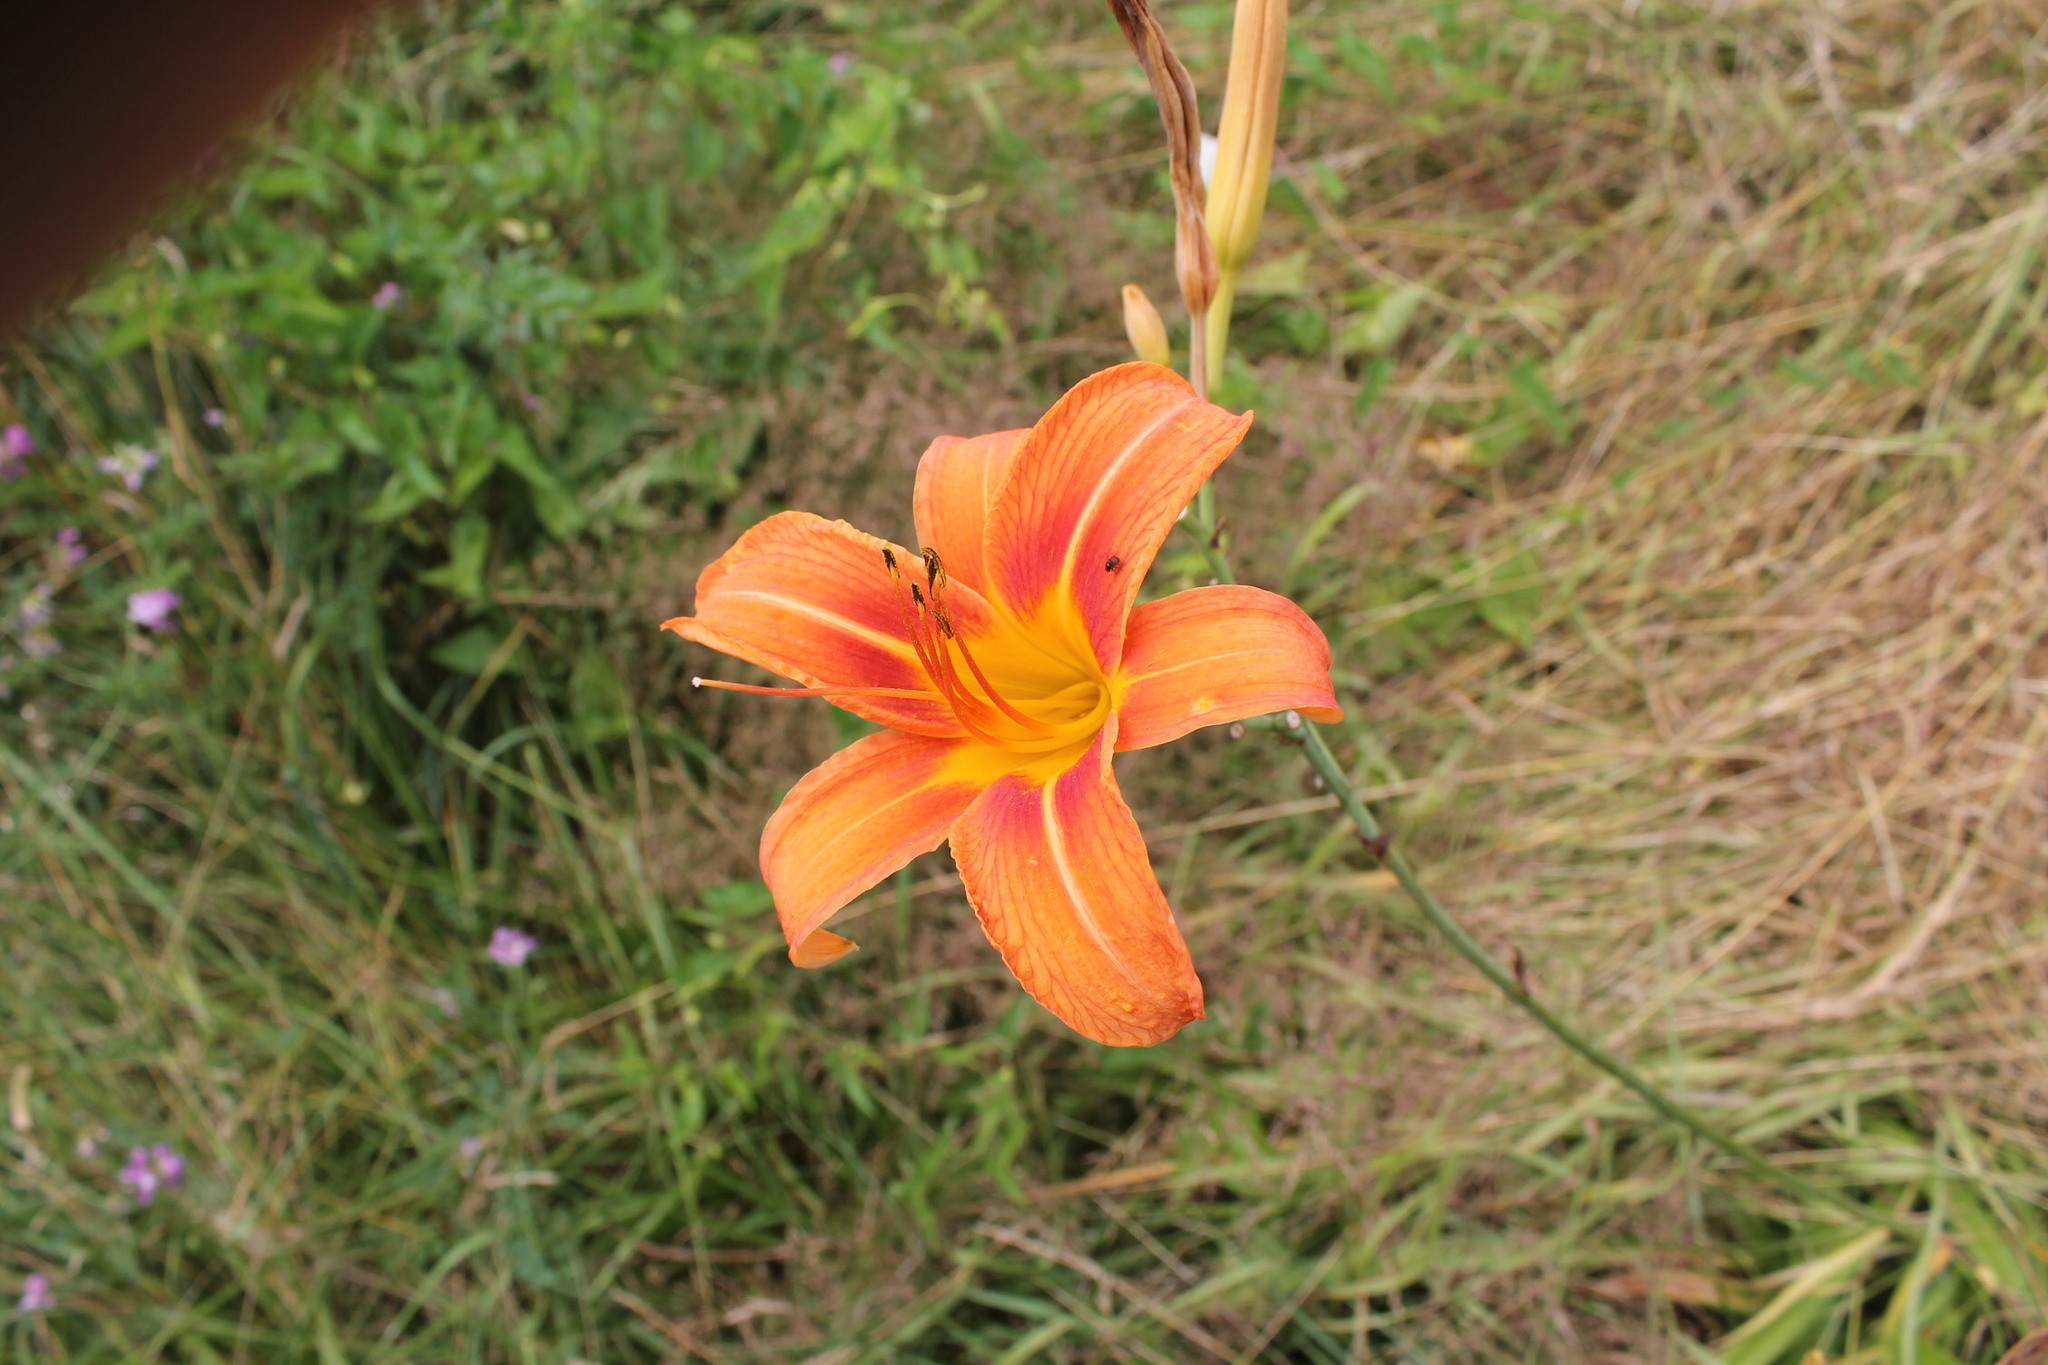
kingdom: Plantae
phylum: Tracheophyta
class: Liliopsida
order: Asparagales
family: Asphodelaceae
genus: Hemerocallis
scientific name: Hemerocallis fulva
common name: Orange day-lily
